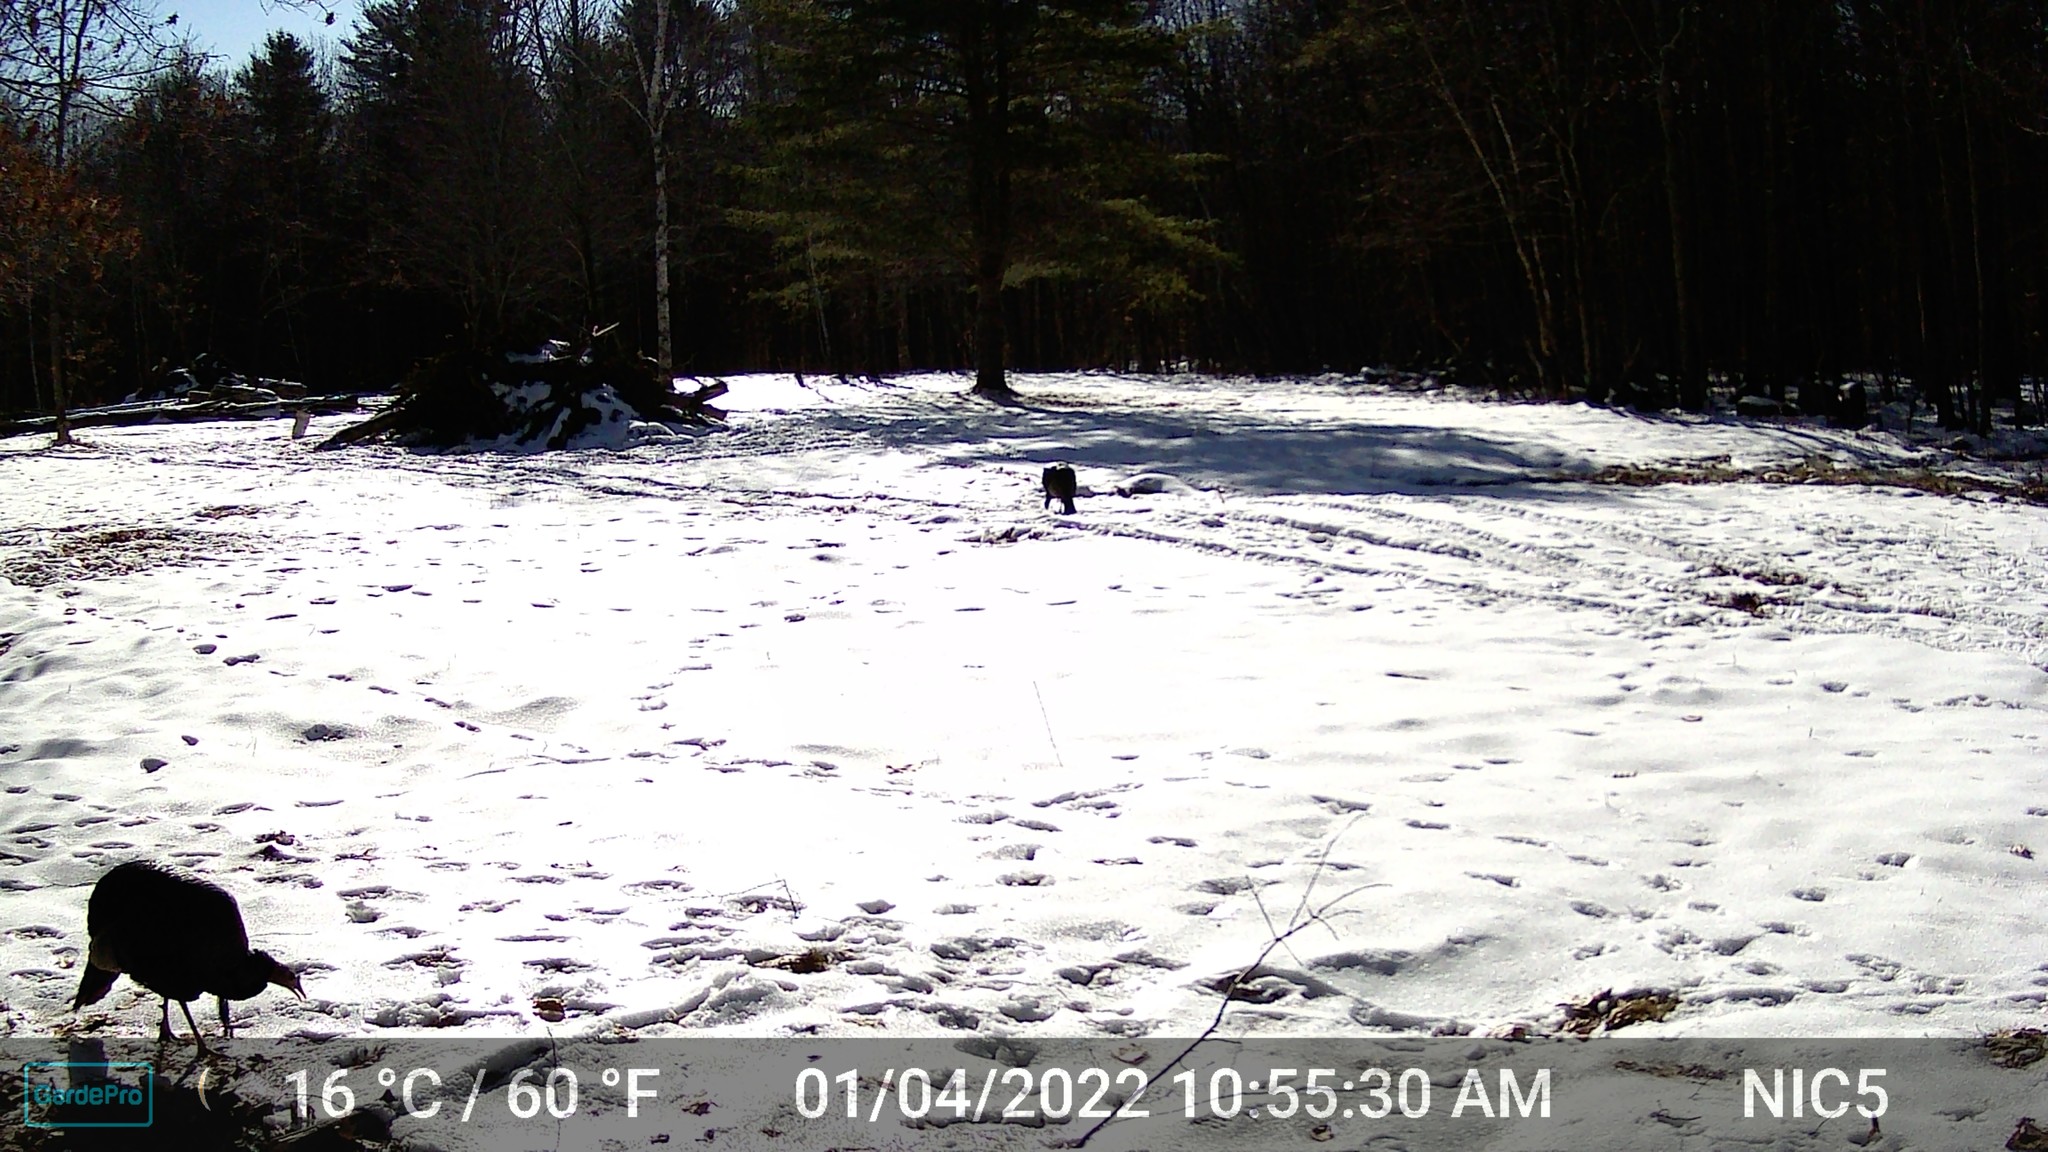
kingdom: Animalia
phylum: Chordata
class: Aves
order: Galliformes
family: Phasianidae
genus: Meleagris
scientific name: Meleagris gallopavo
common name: Wild turkey
